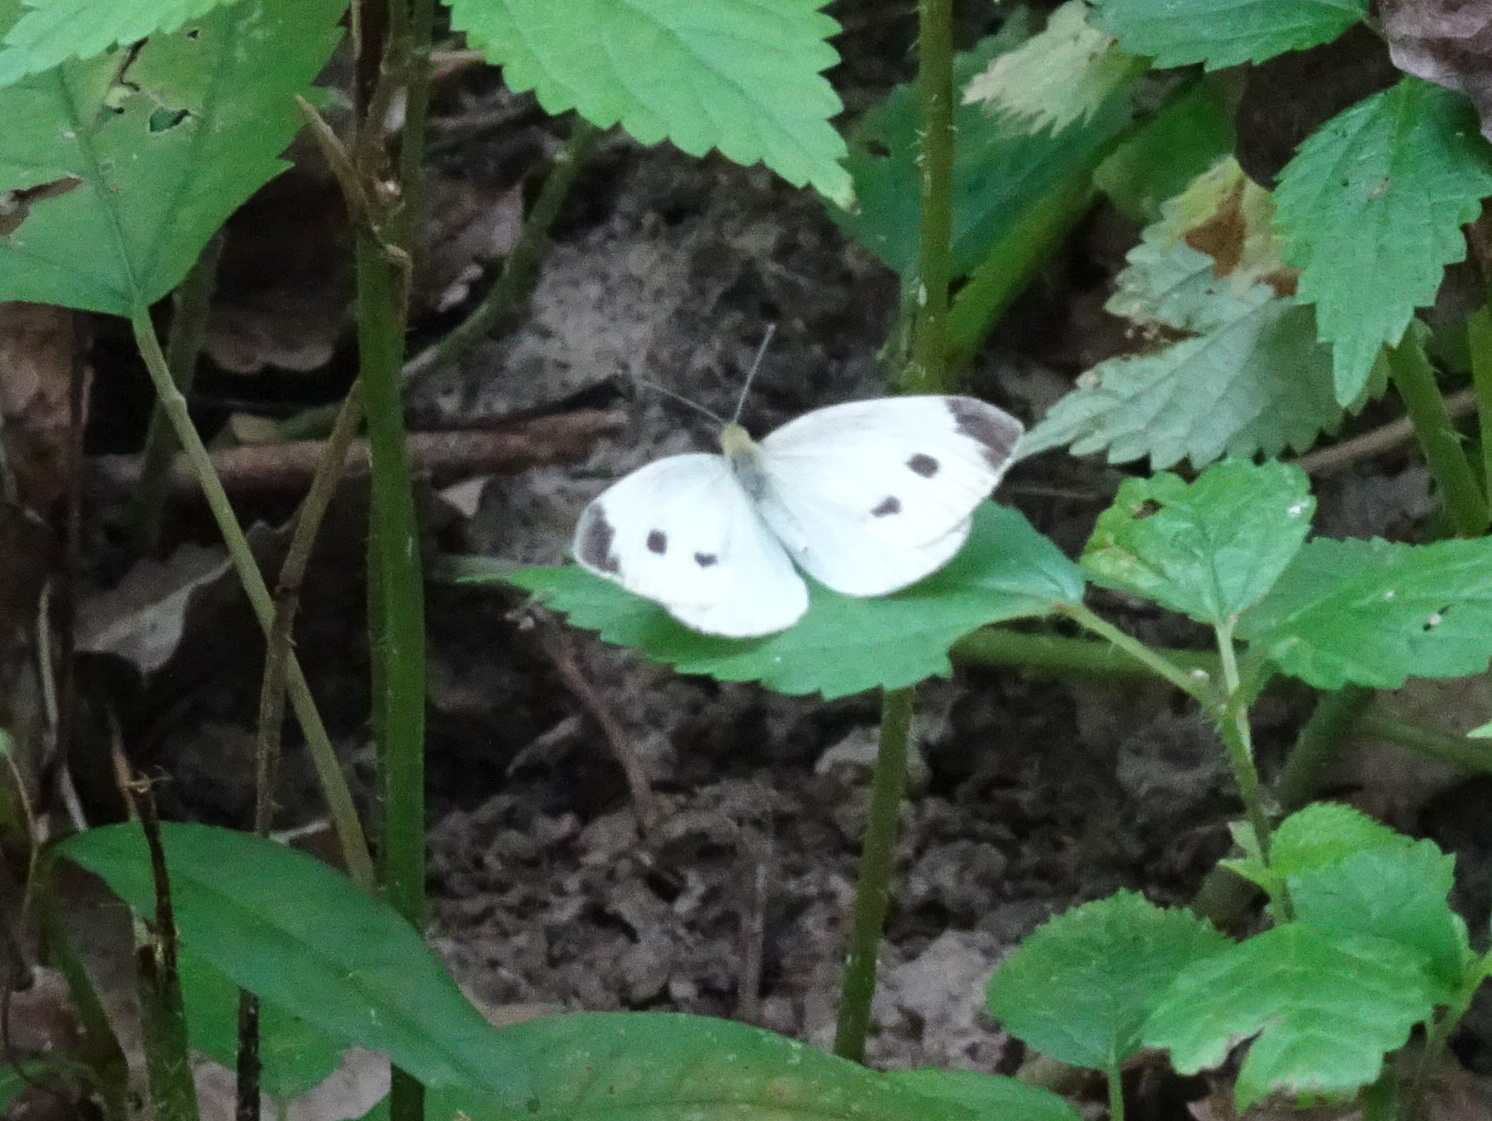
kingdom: Animalia
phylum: Arthropoda
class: Insecta
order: Lepidoptera
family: Pieridae
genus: Pieris
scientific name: Pieris rapae
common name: Small white
